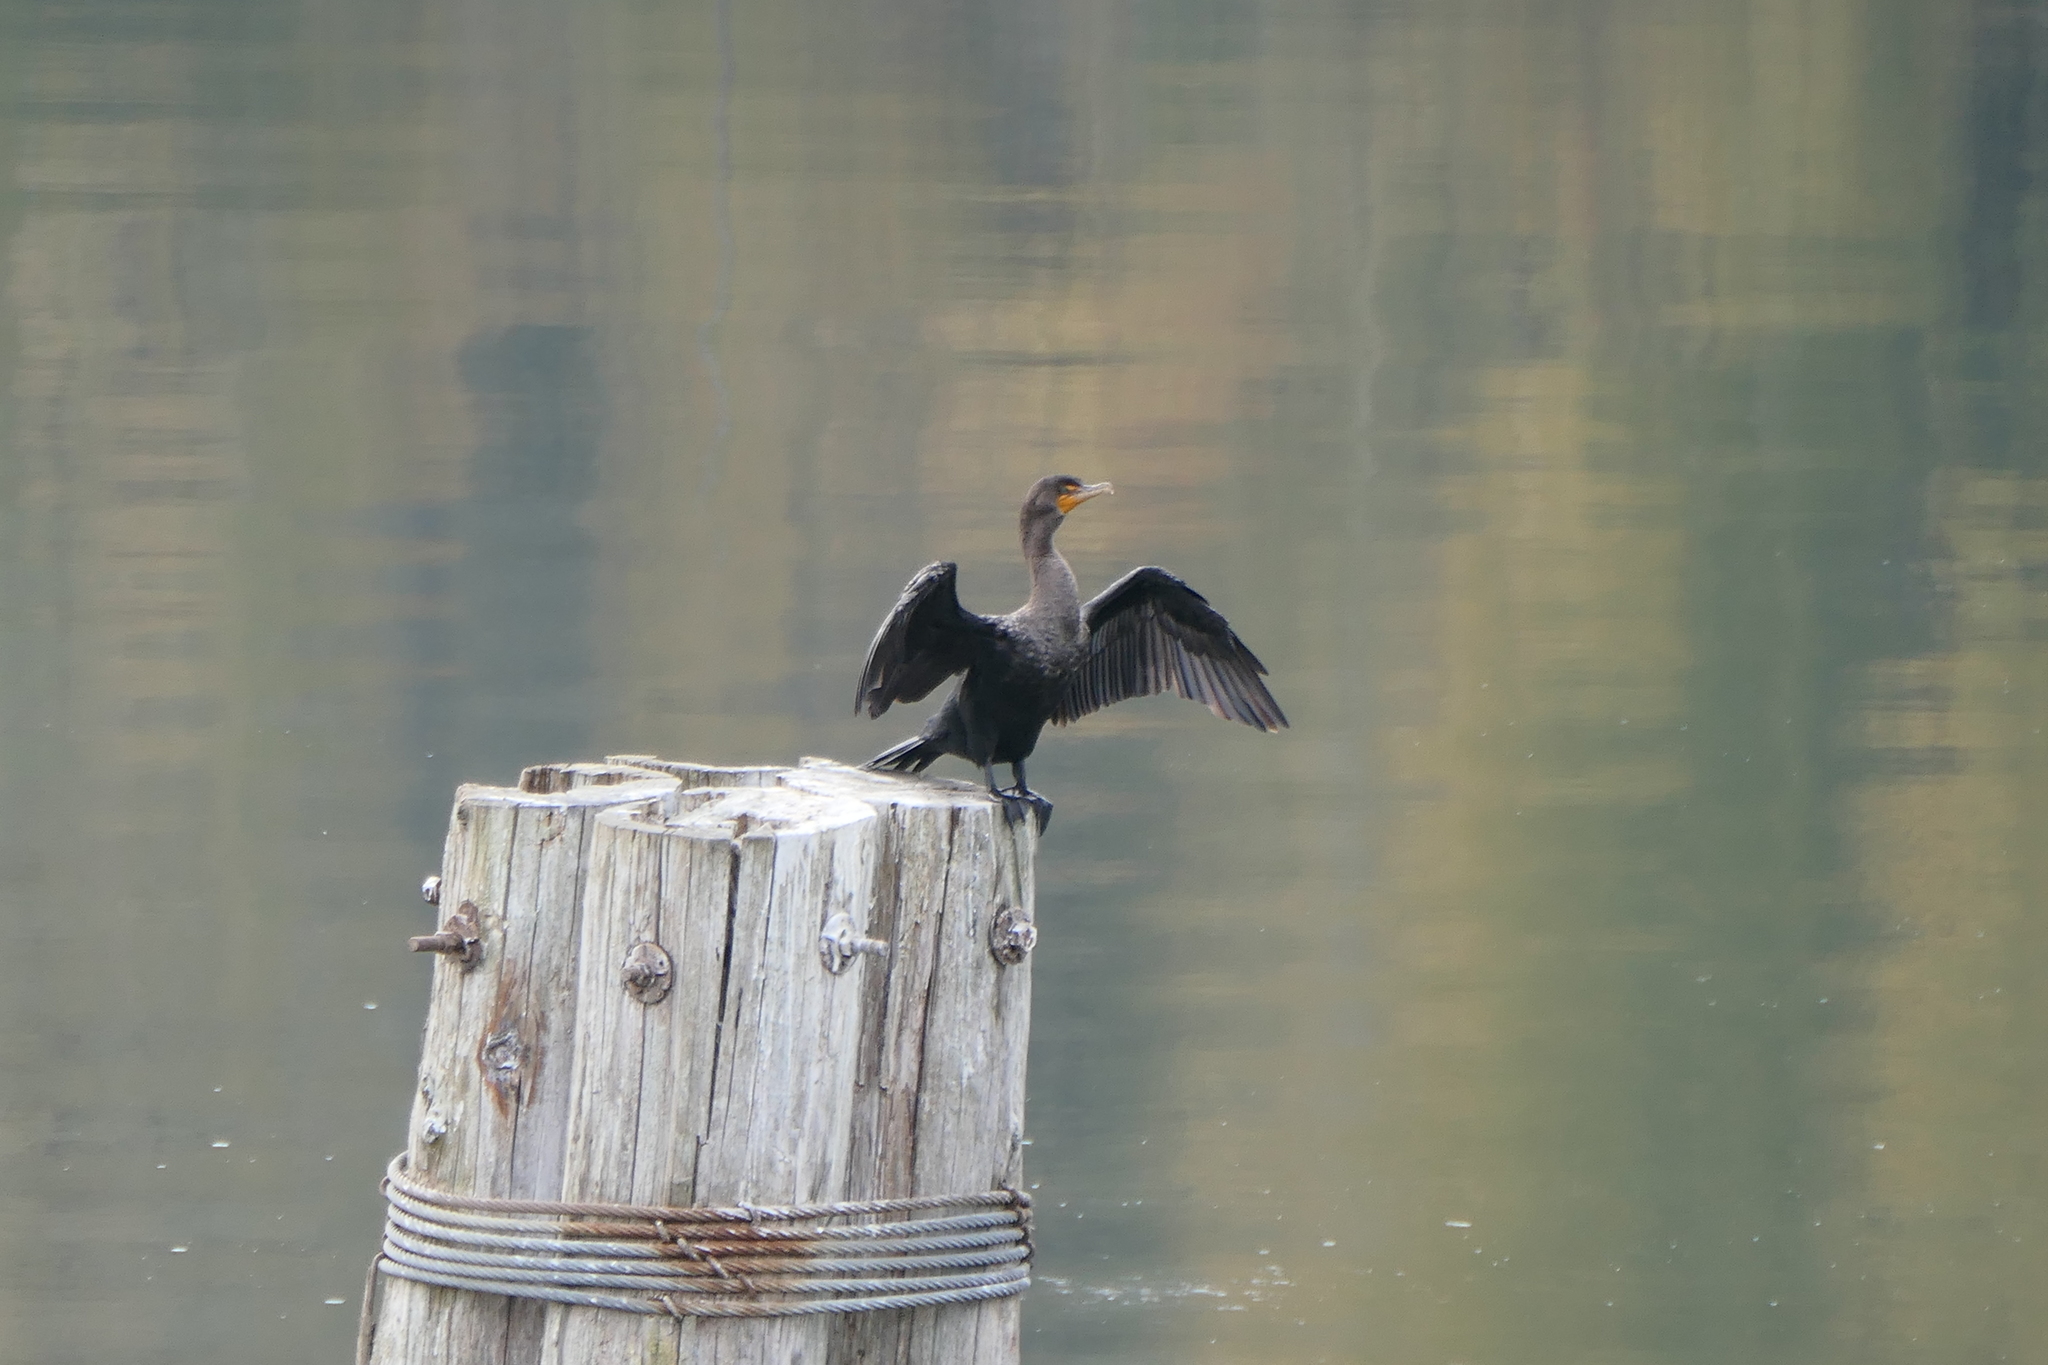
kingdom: Animalia
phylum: Chordata
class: Aves
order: Suliformes
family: Phalacrocoracidae
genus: Phalacrocorax
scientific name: Phalacrocorax auritus
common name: Double-crested cormorant
